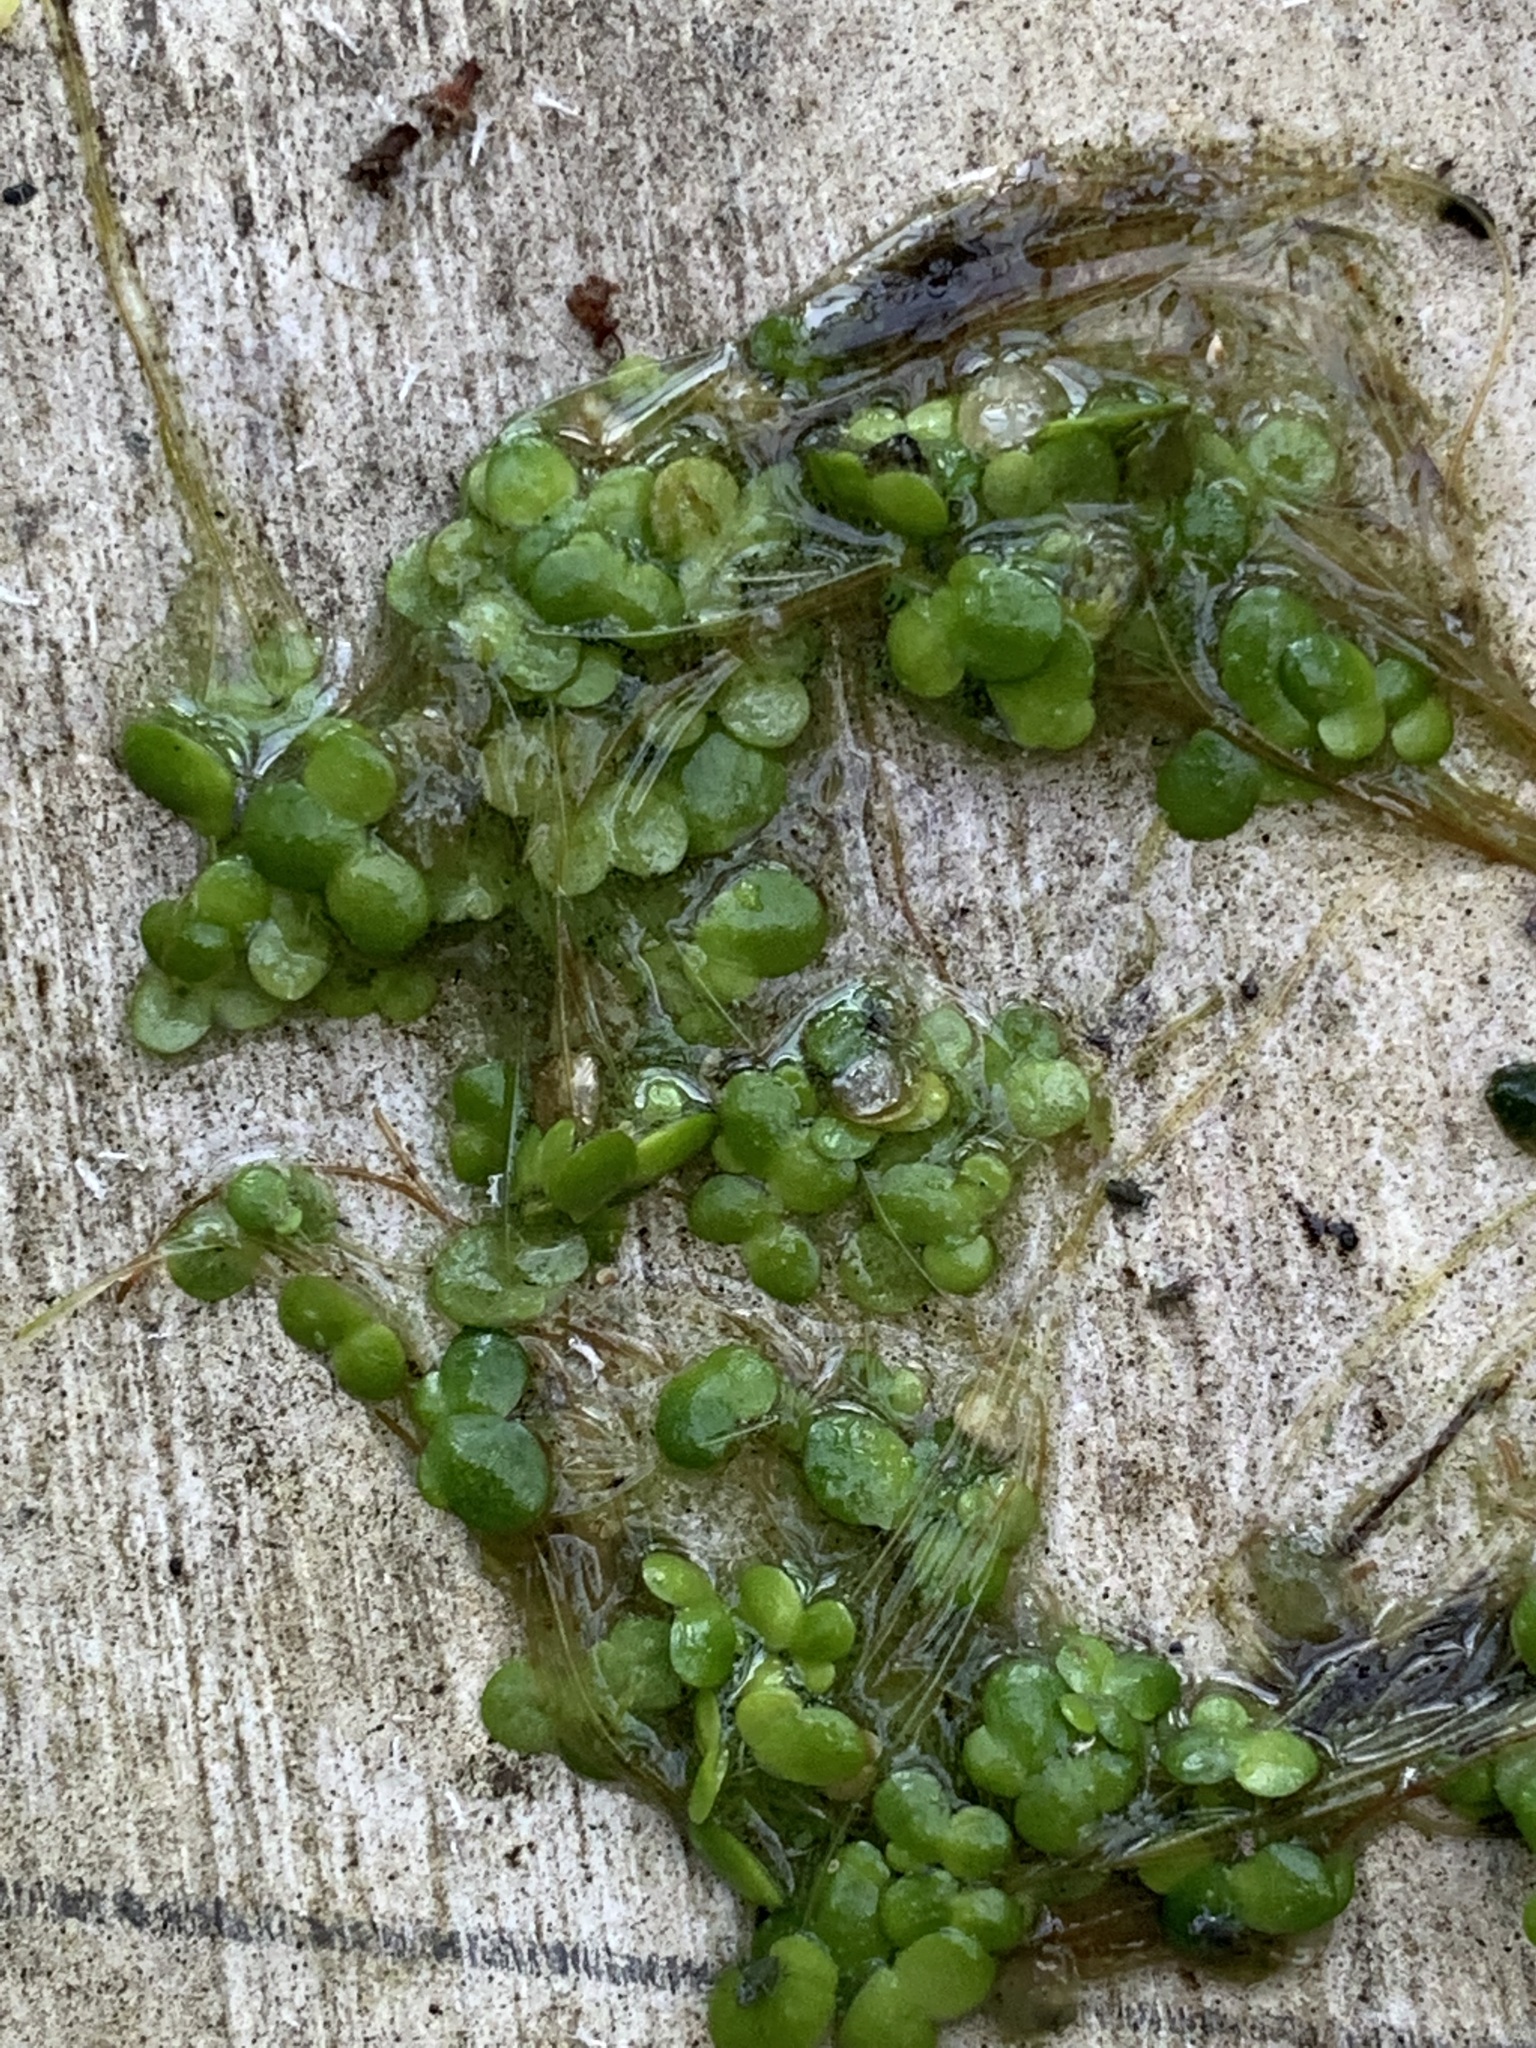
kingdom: Plantae
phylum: Tracheophyta
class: Liliopsida
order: Alismatales
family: Araceae
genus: Lemna
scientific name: Lemna turionifera
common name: Perennial duckweed
